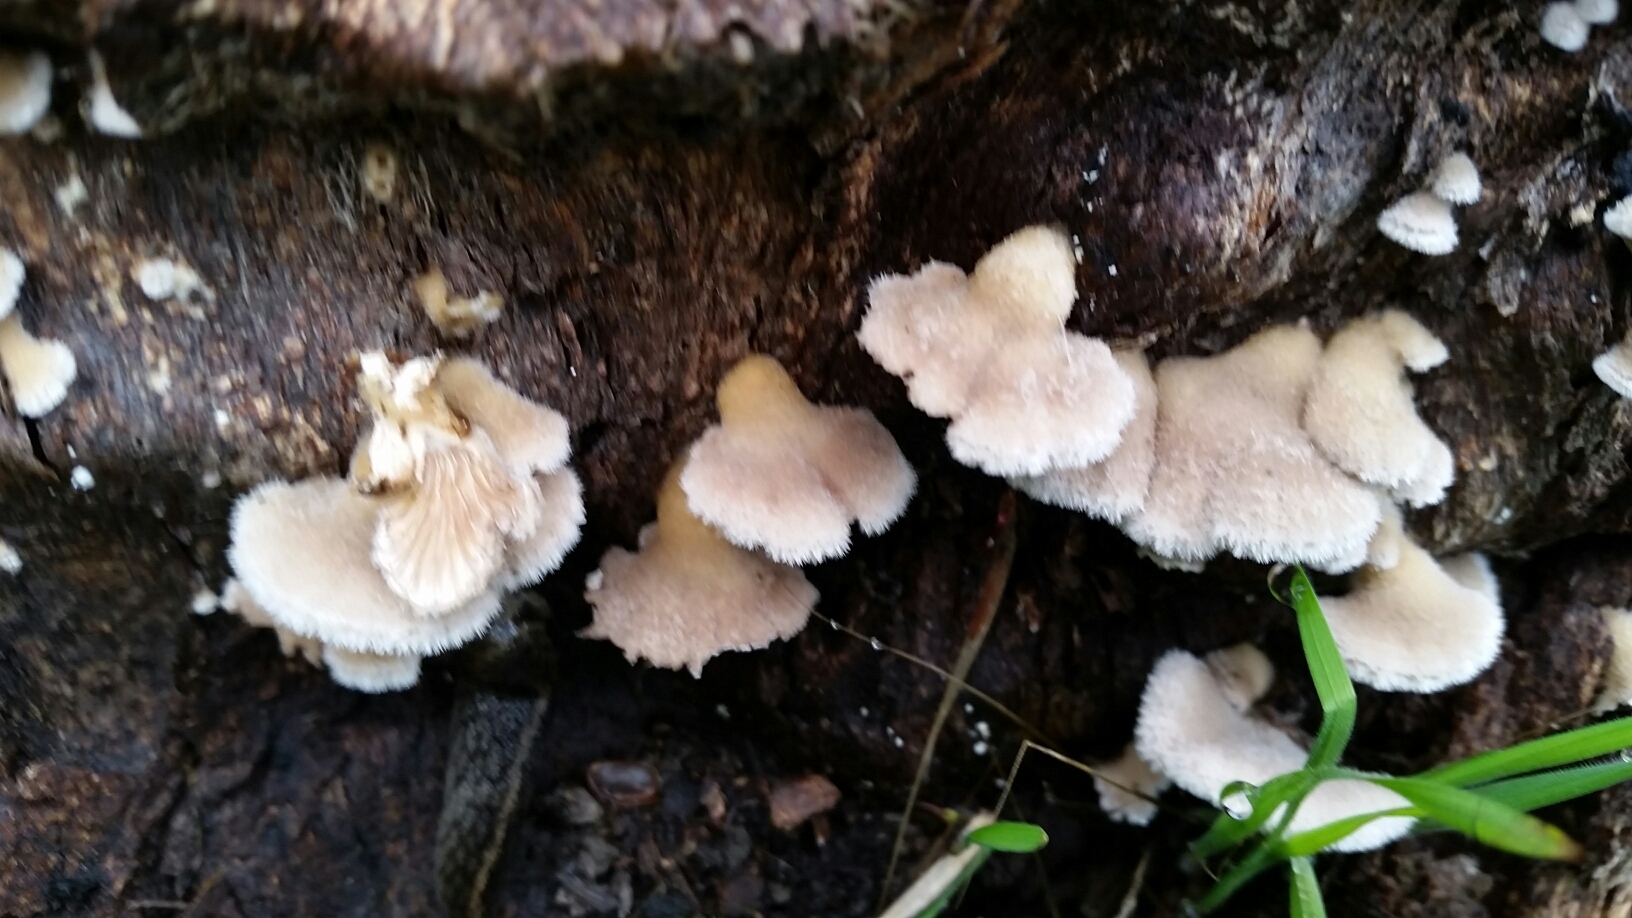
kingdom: Fungi
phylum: Basidiomycota
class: Agaricomycetes
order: Agaricales
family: Schizophyllaceae
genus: Schizophyllum
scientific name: Schizophyllum commune
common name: Common porecrust
